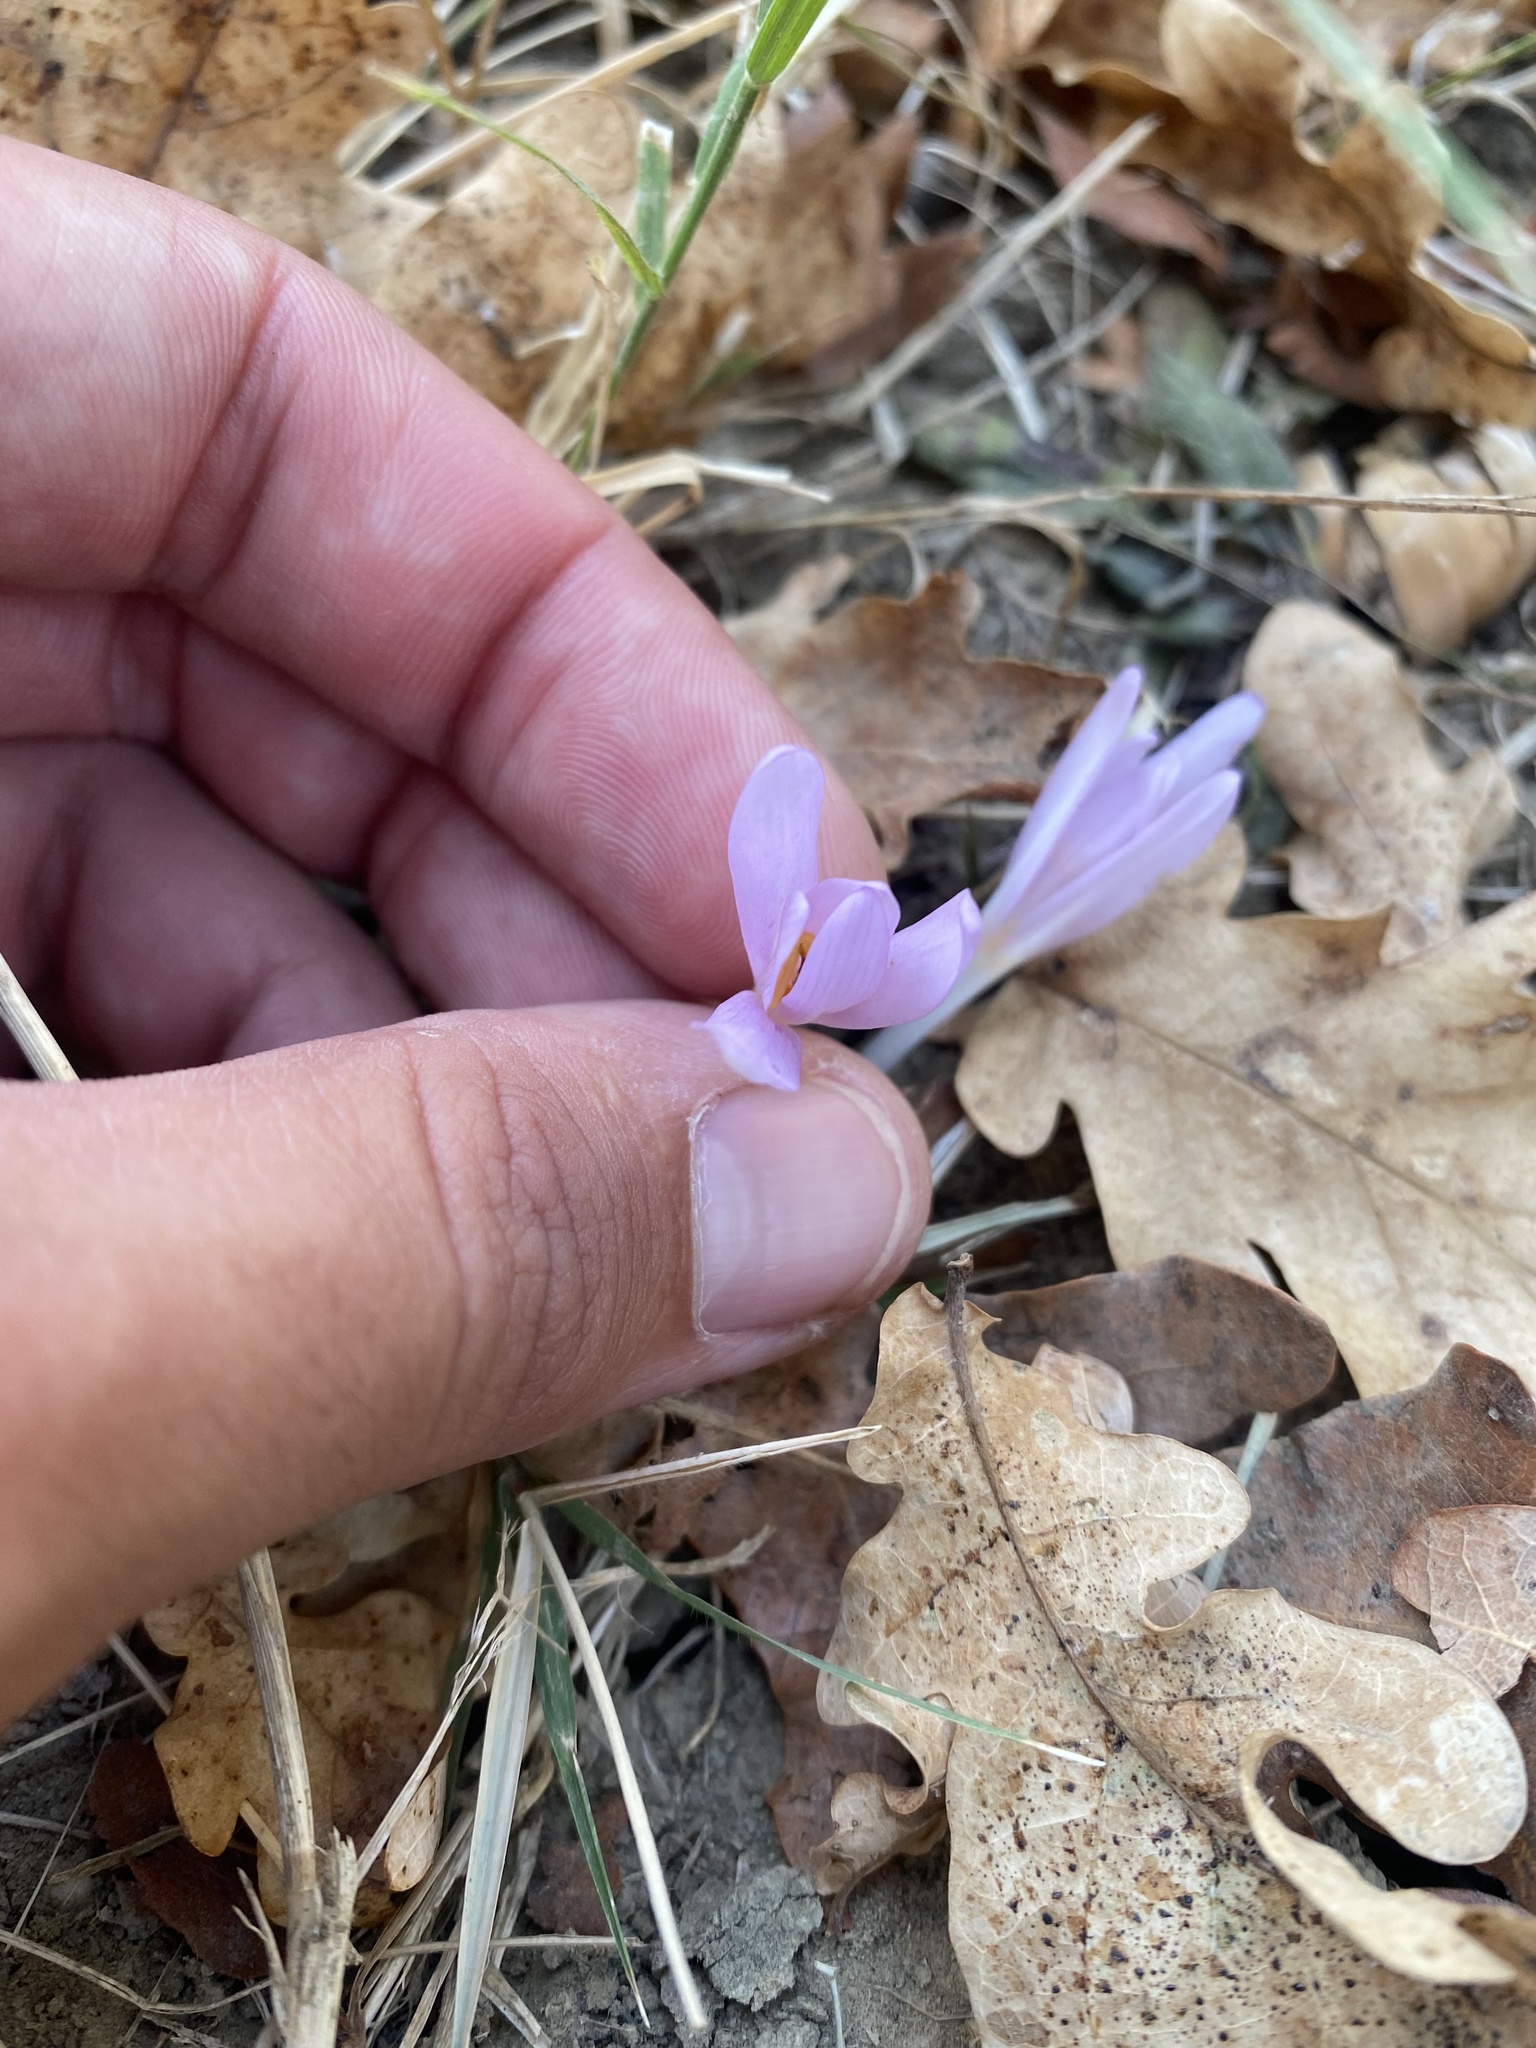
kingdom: Plantae
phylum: Tracheophyta
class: Liliopsida
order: Liliales
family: Colchicaceae
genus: Colchicum
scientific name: Colchicum umbrosum
